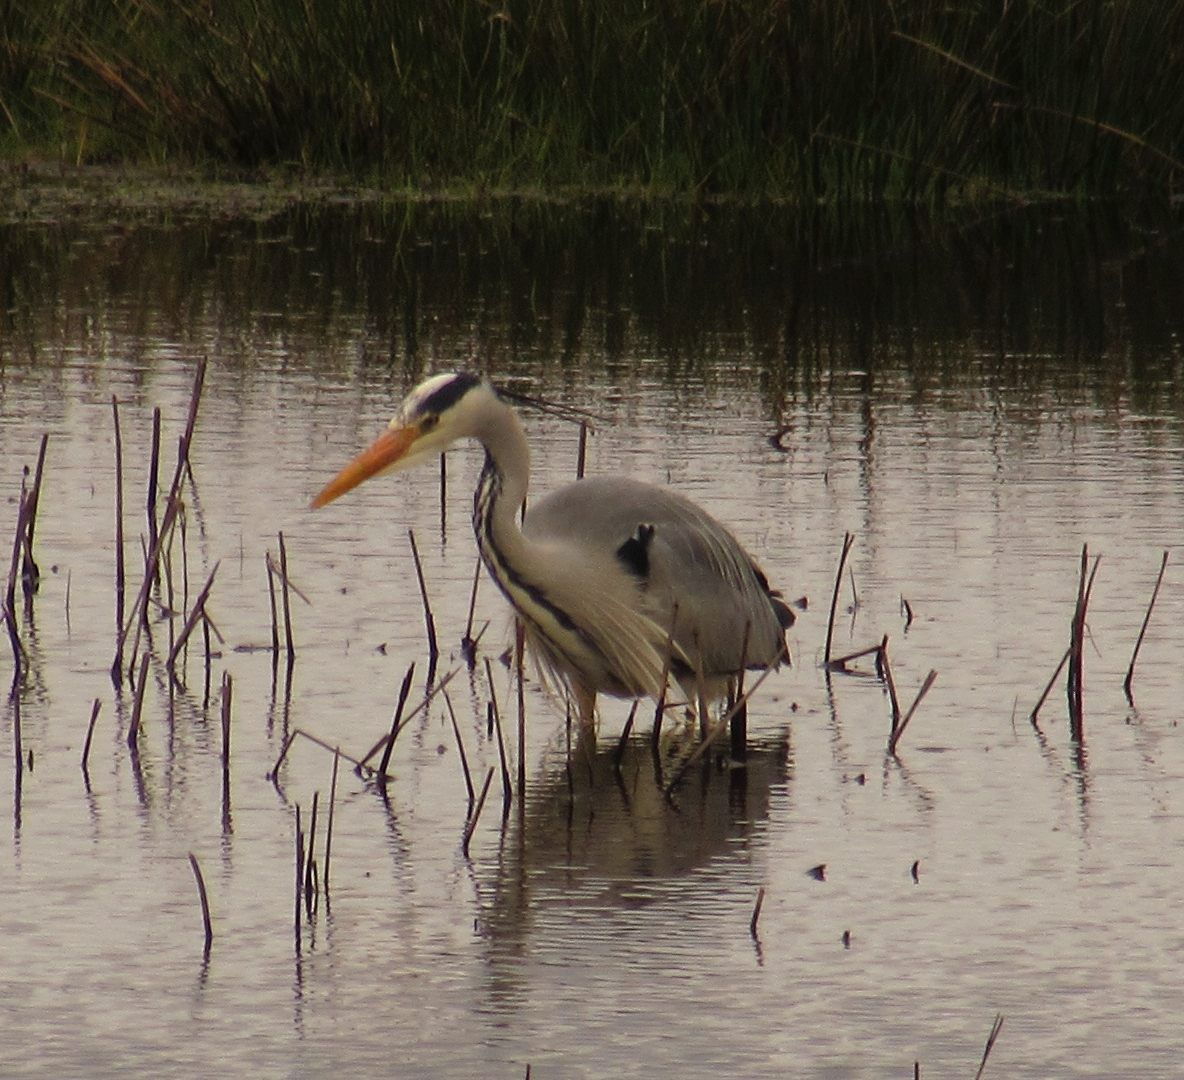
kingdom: Animalia
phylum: Chordata
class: Aves
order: Pelecaniformes
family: Ardeidae
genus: Ardea
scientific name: Ardea cinerea
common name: Grey heron
